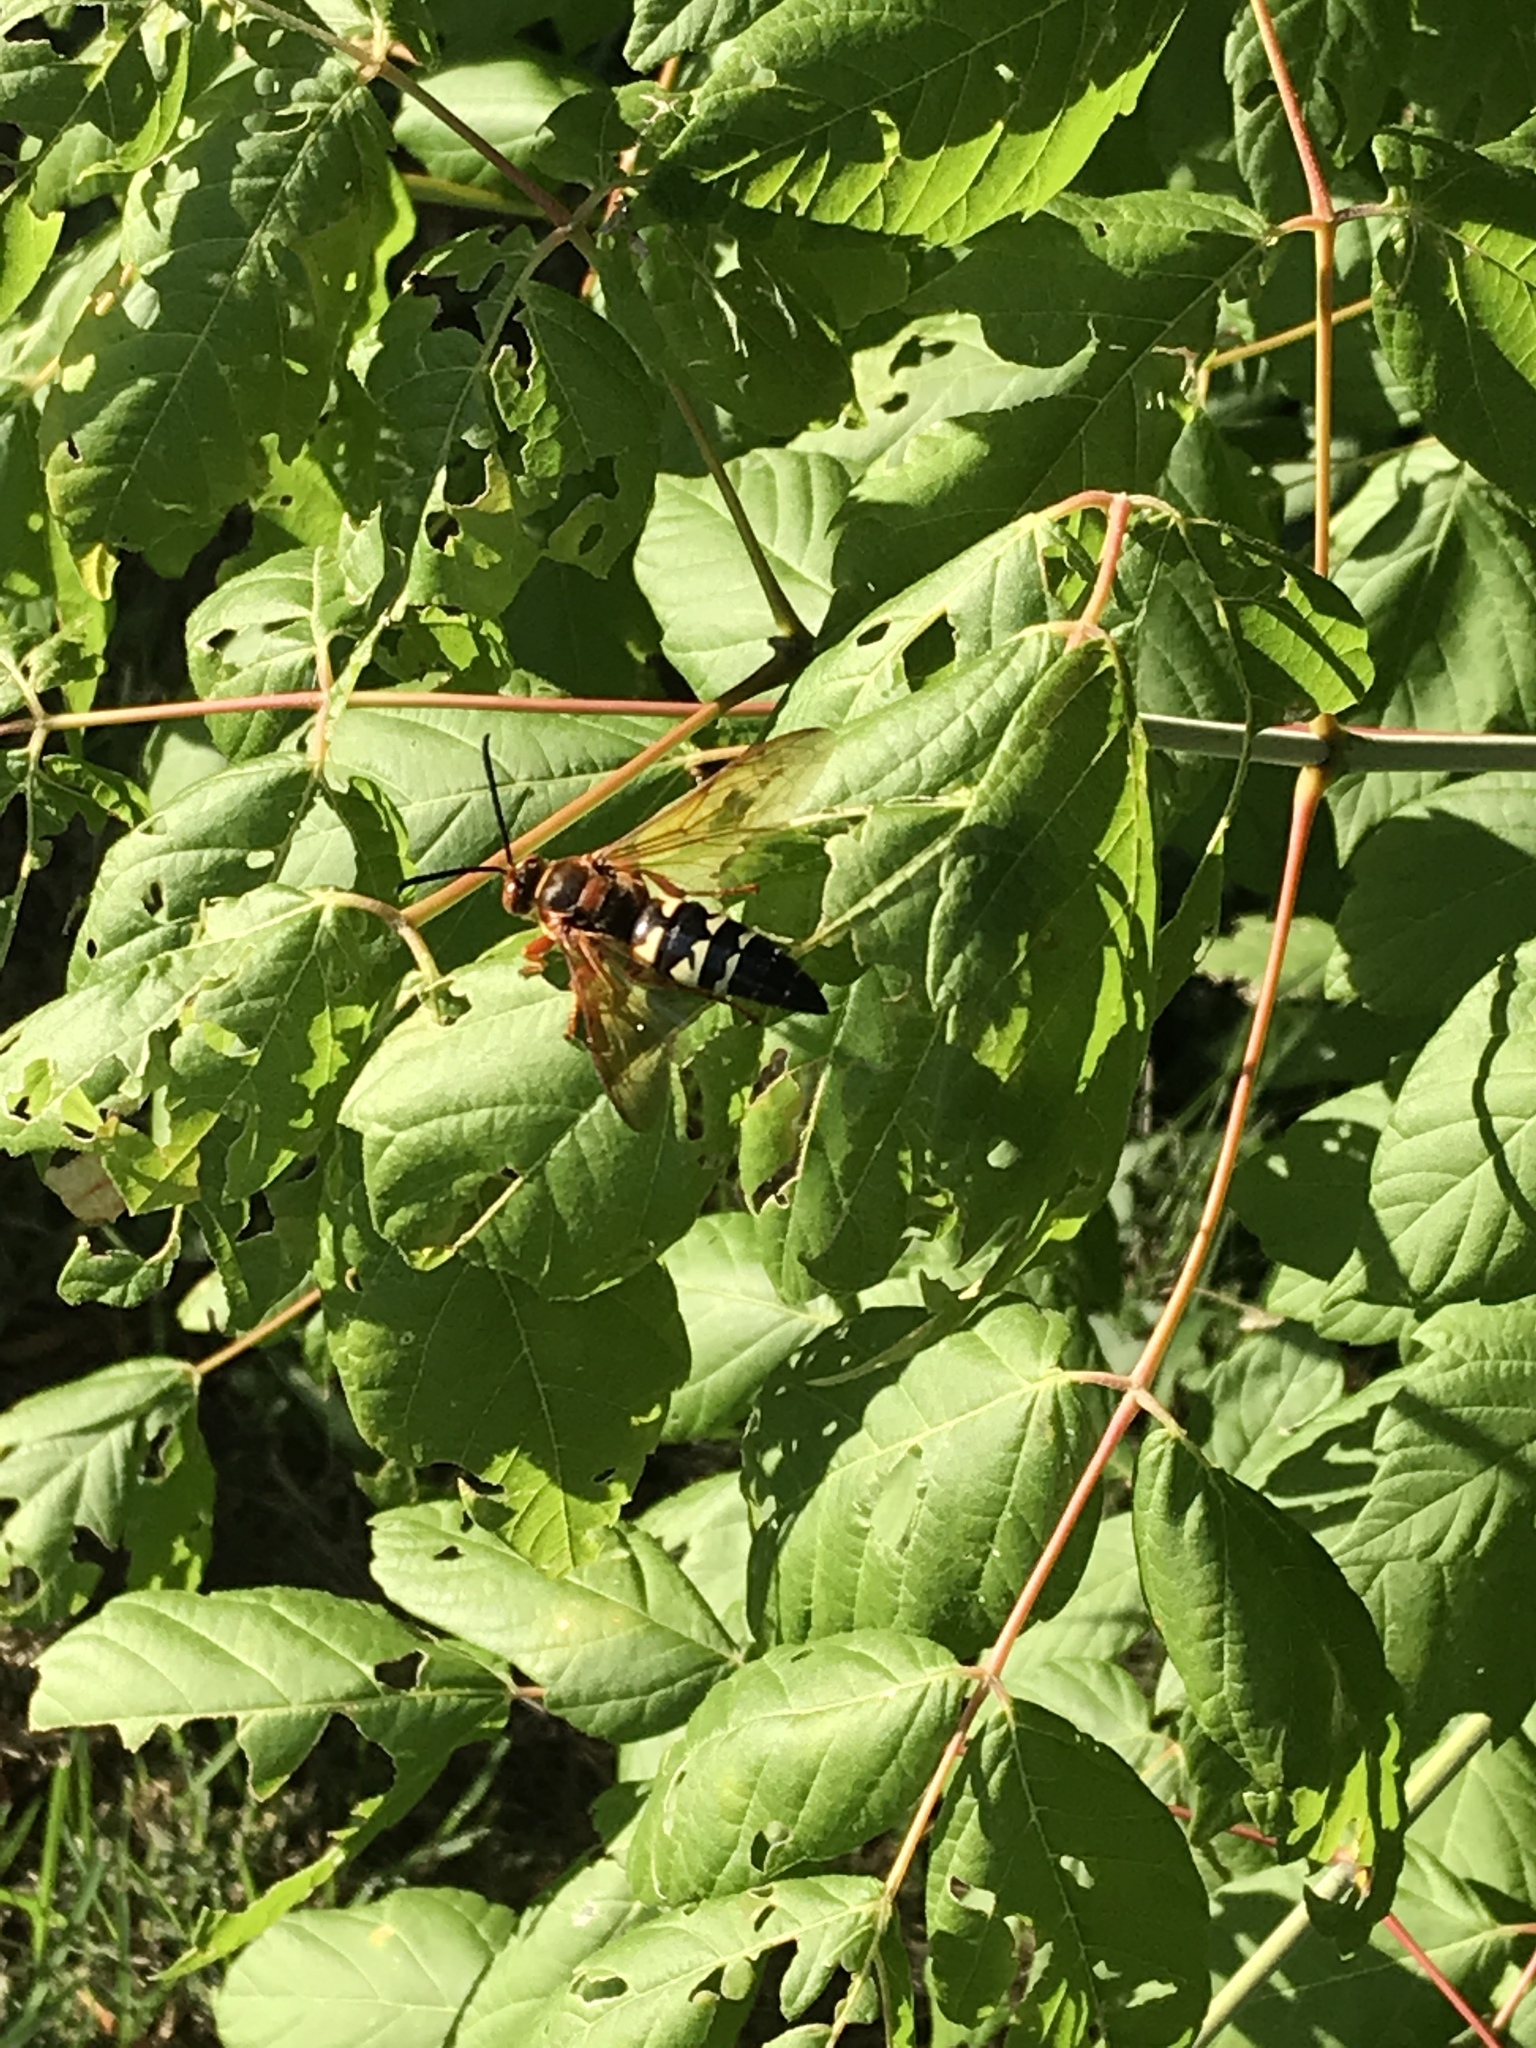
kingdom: Animalia
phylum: Arthropoda
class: Insecta
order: Hymenoptera
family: Crabronidae
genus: Sphecius
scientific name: Sphecius speciosus
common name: Cicada killer
